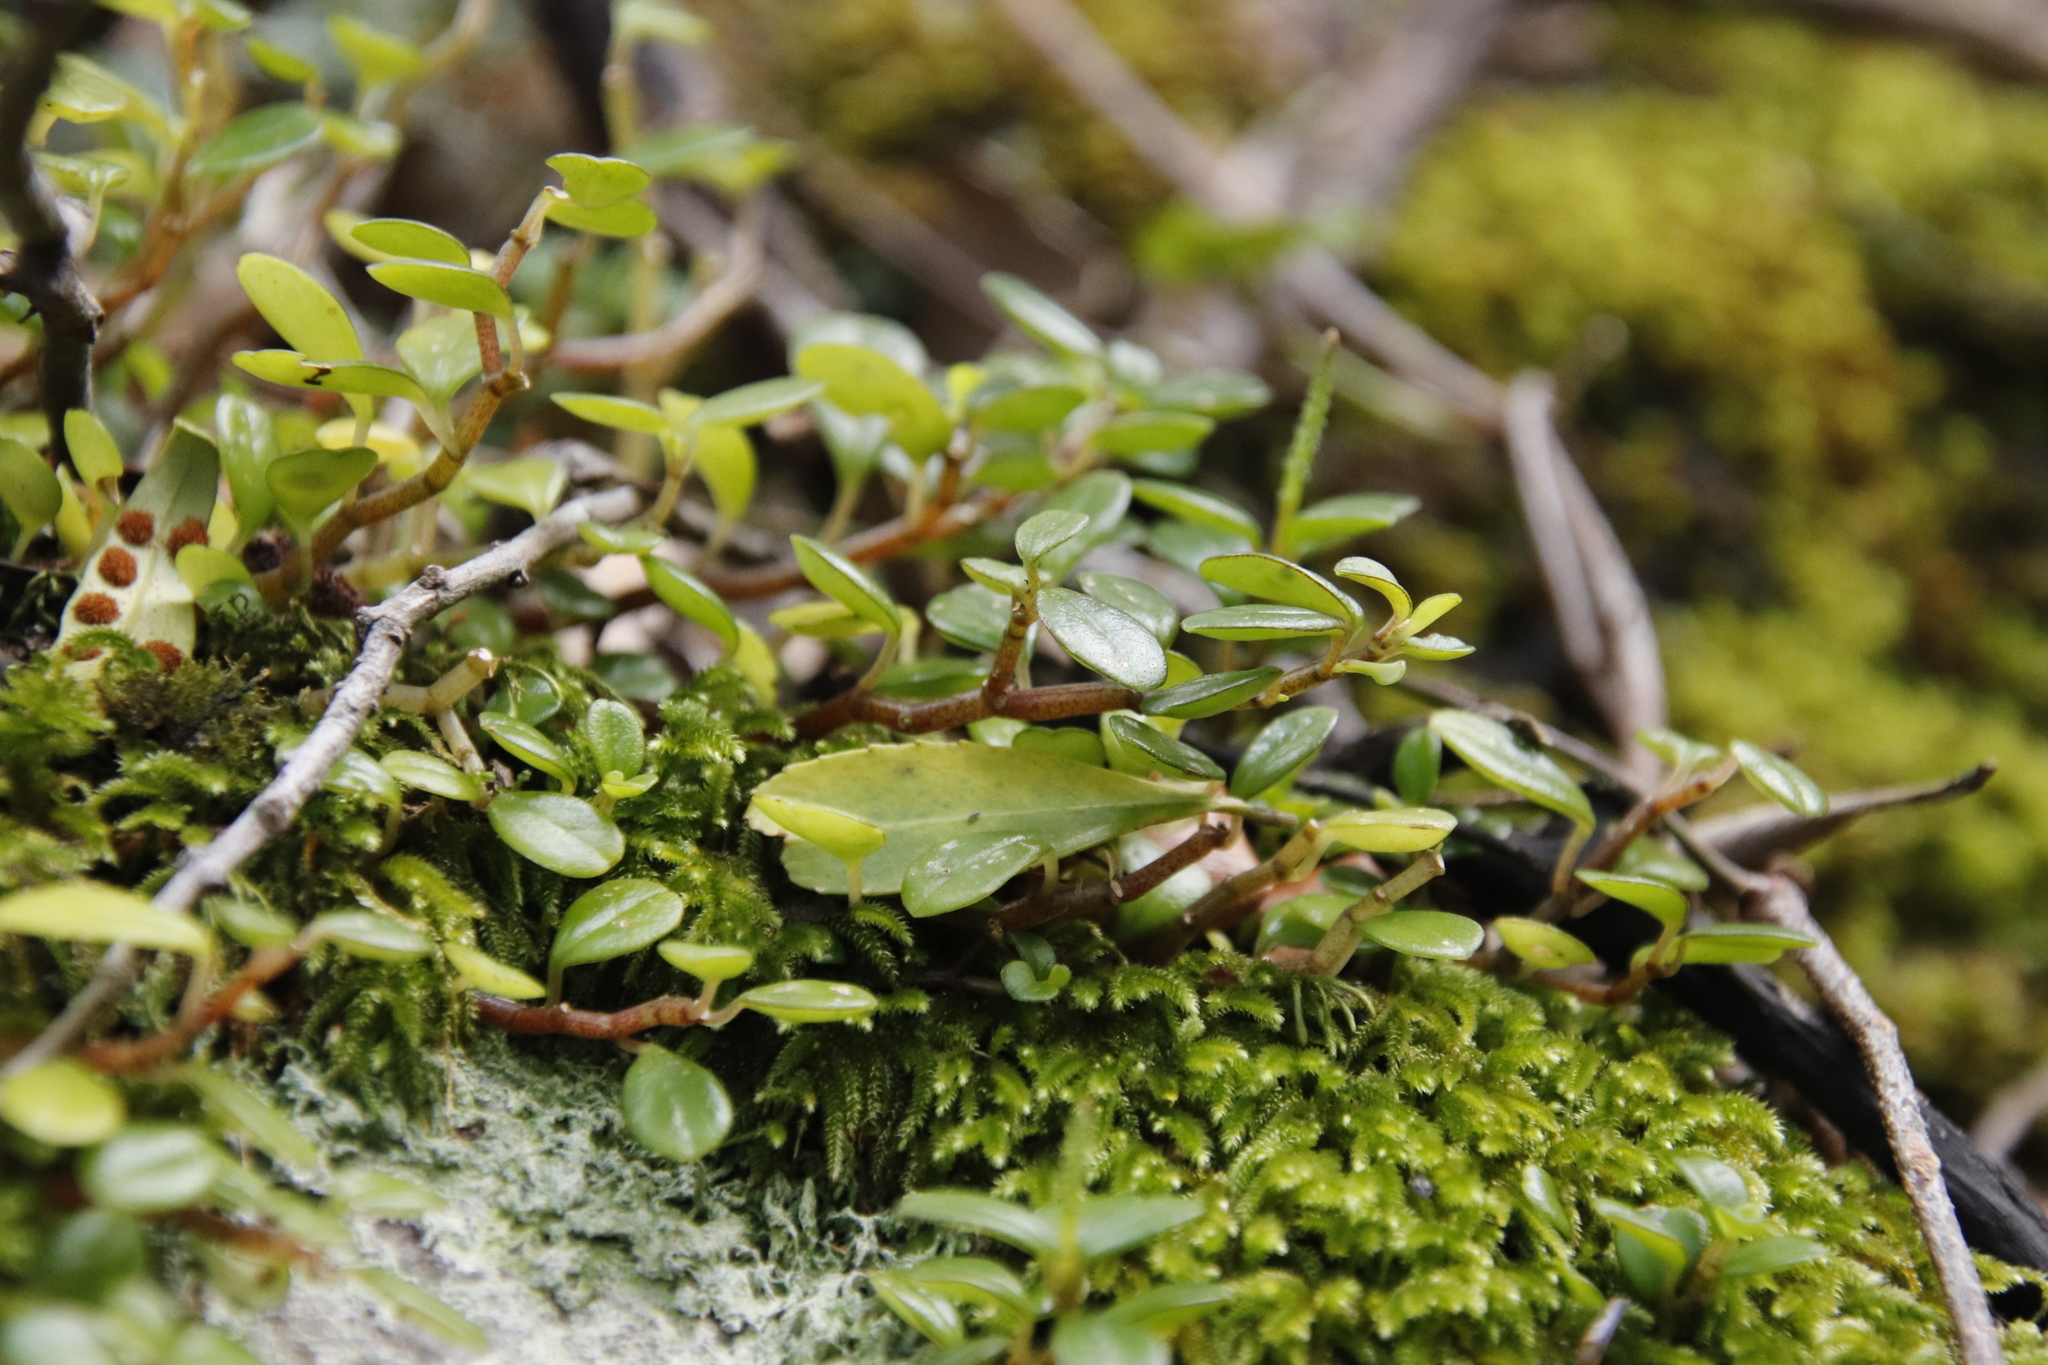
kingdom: Plantae
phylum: Tracheophyta
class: Magnoliopsida
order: Piperales
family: Piperaceae
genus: Peperomia
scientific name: Peperomia retusa
